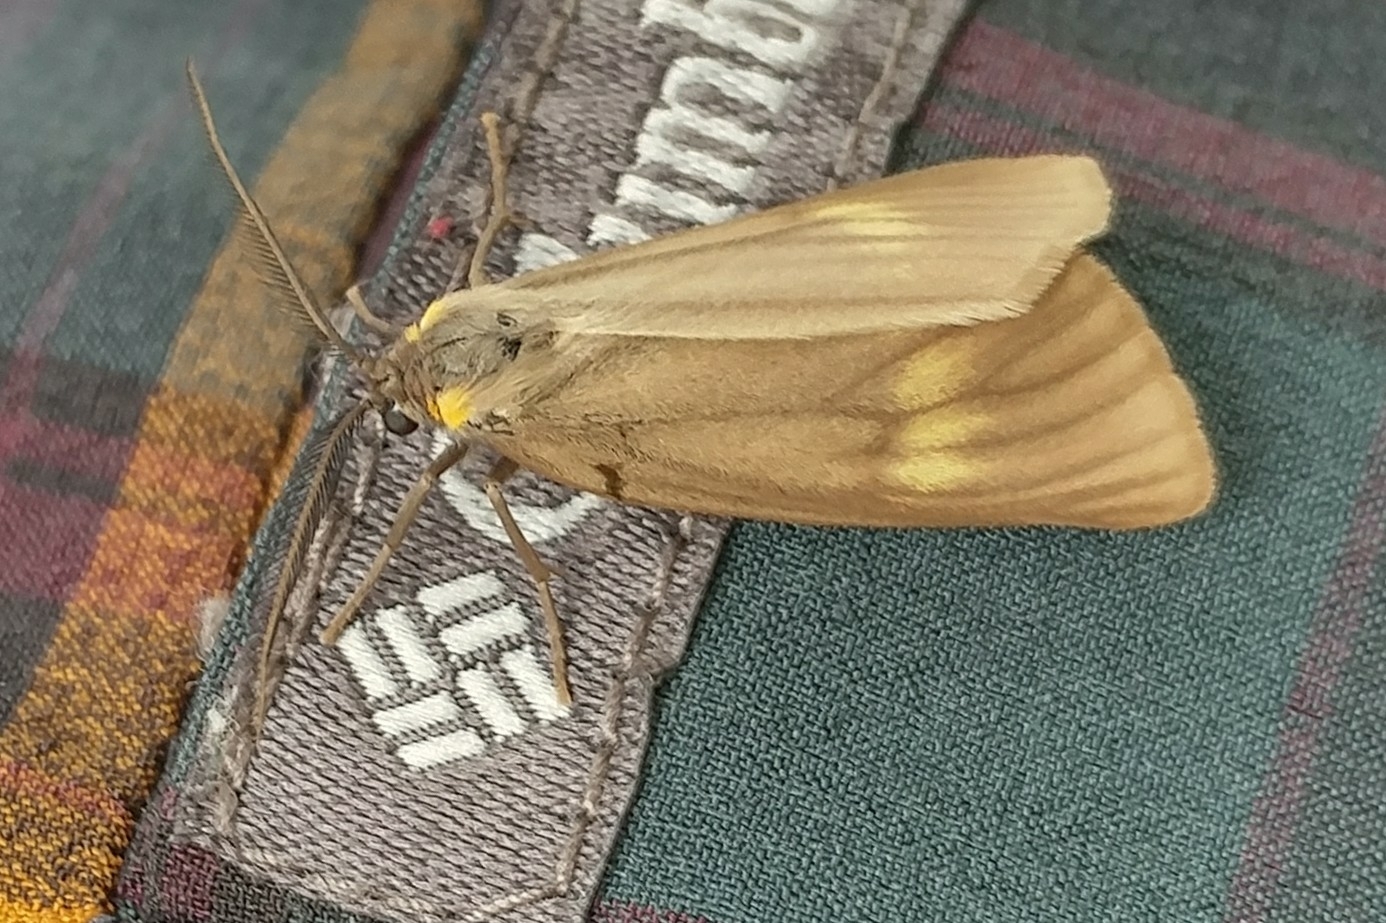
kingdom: Animalia
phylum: Arthropoda
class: Insecta
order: Lepidoptera
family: Notodontidae
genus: Phryganidia
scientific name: Phryganidia californica
